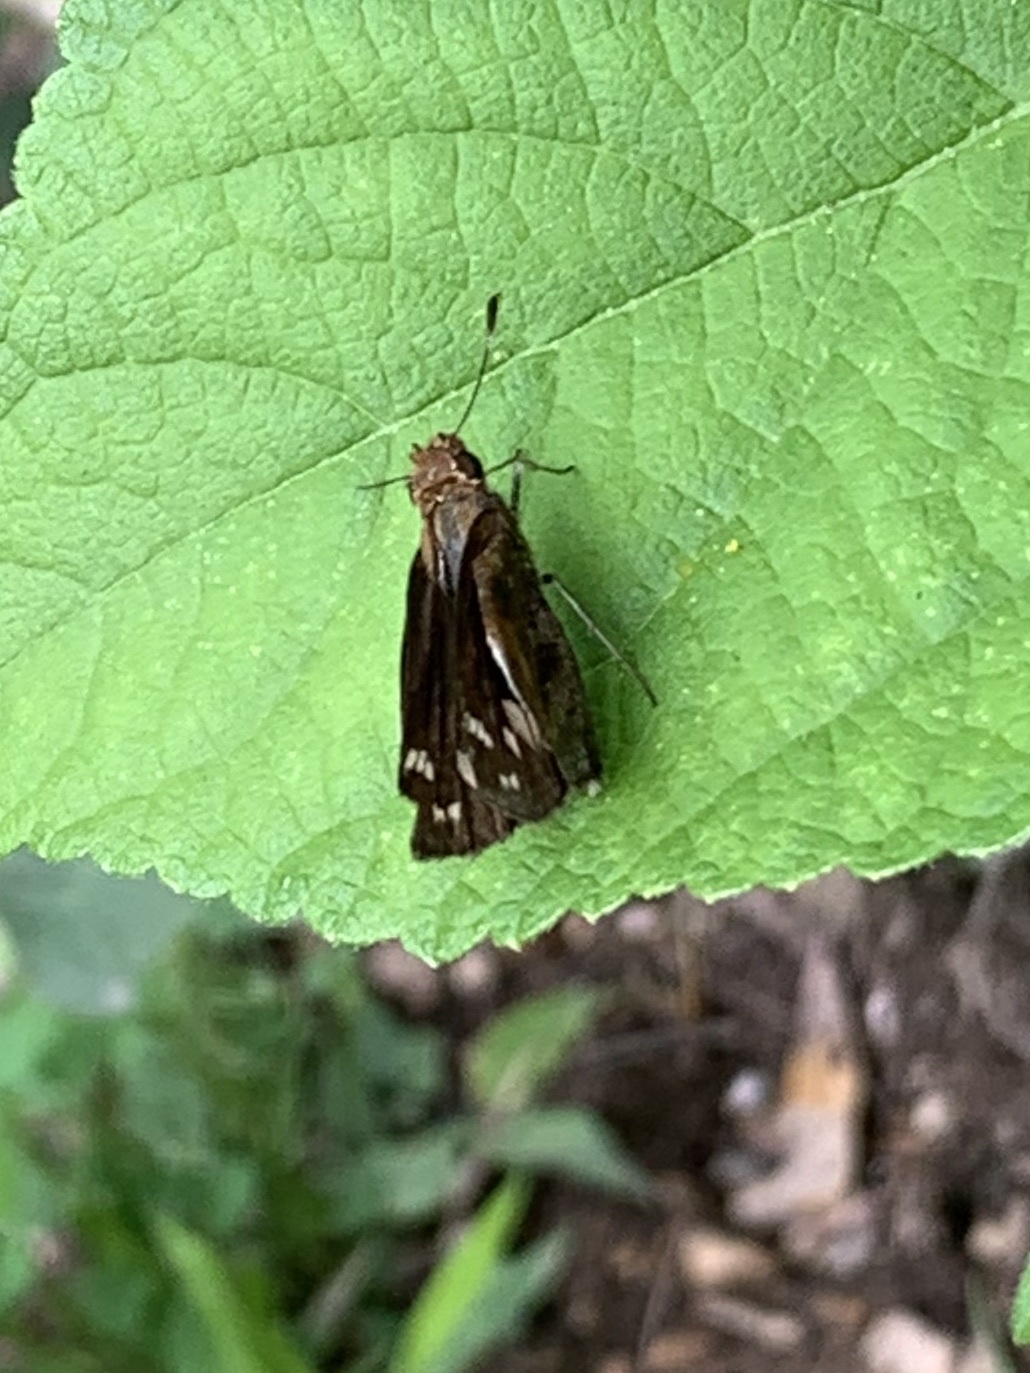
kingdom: Animalia
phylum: Arthropoda
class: Insecta
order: Lepidoptera
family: Hesperiidae
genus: Lon
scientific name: Lon zabulon
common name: Zabulon skipper
